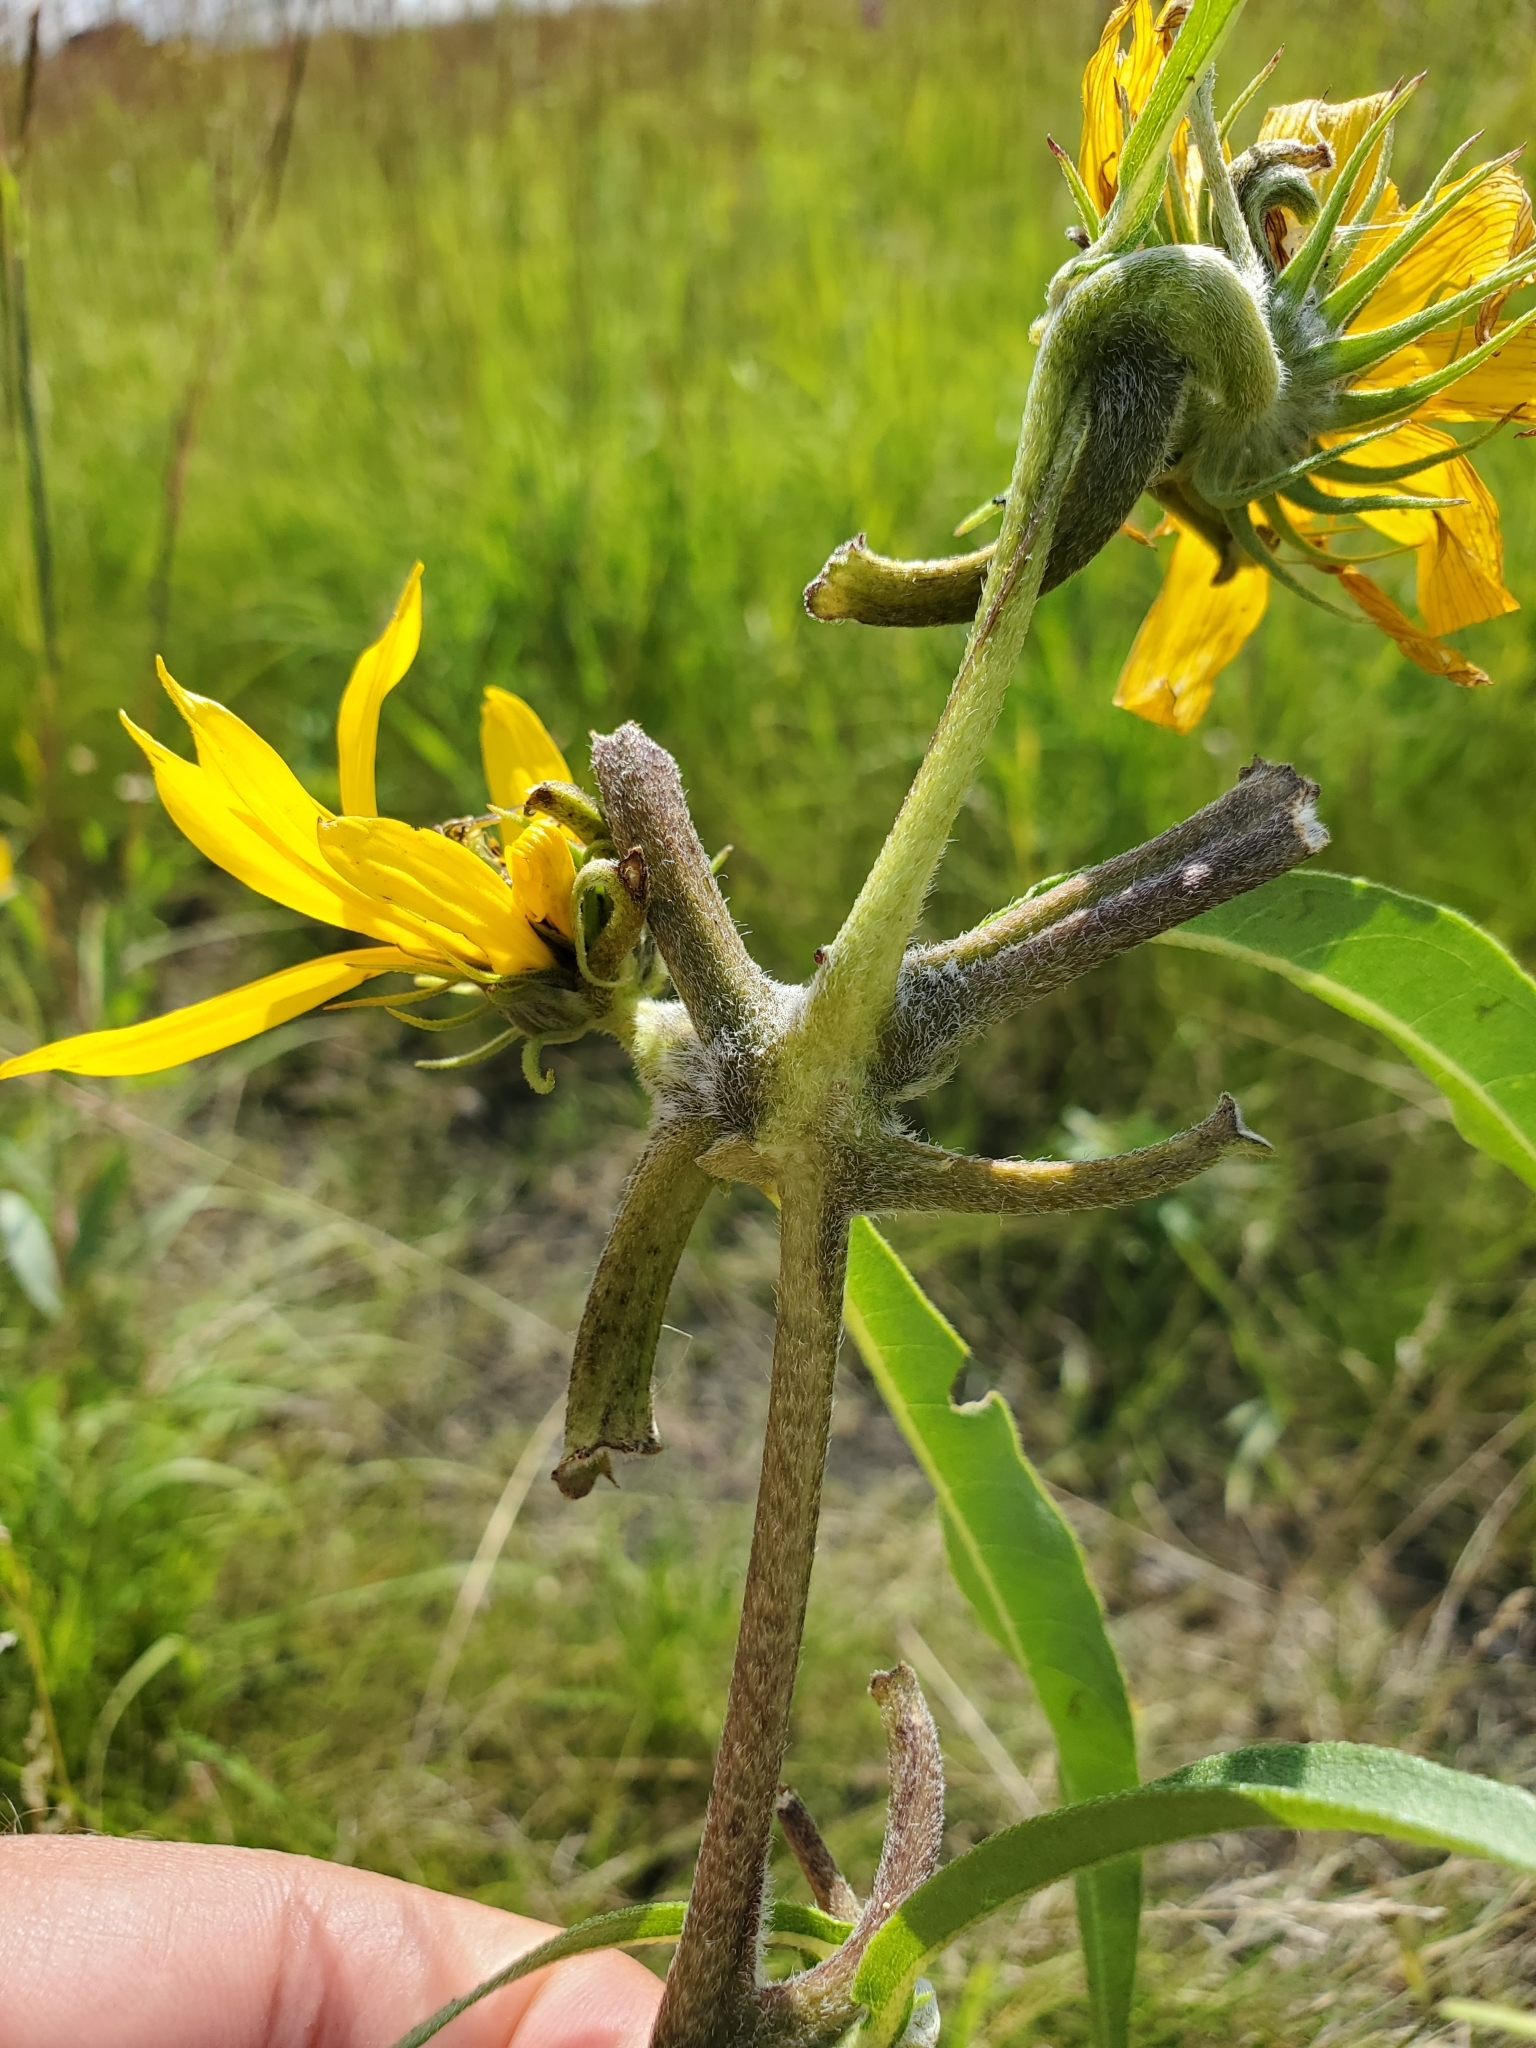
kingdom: Animalia
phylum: Arthropoda
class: Insecta
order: Diptera
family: Cecidomyiidae
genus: Olpodiplosis
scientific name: Olpodiplosis helianthi
